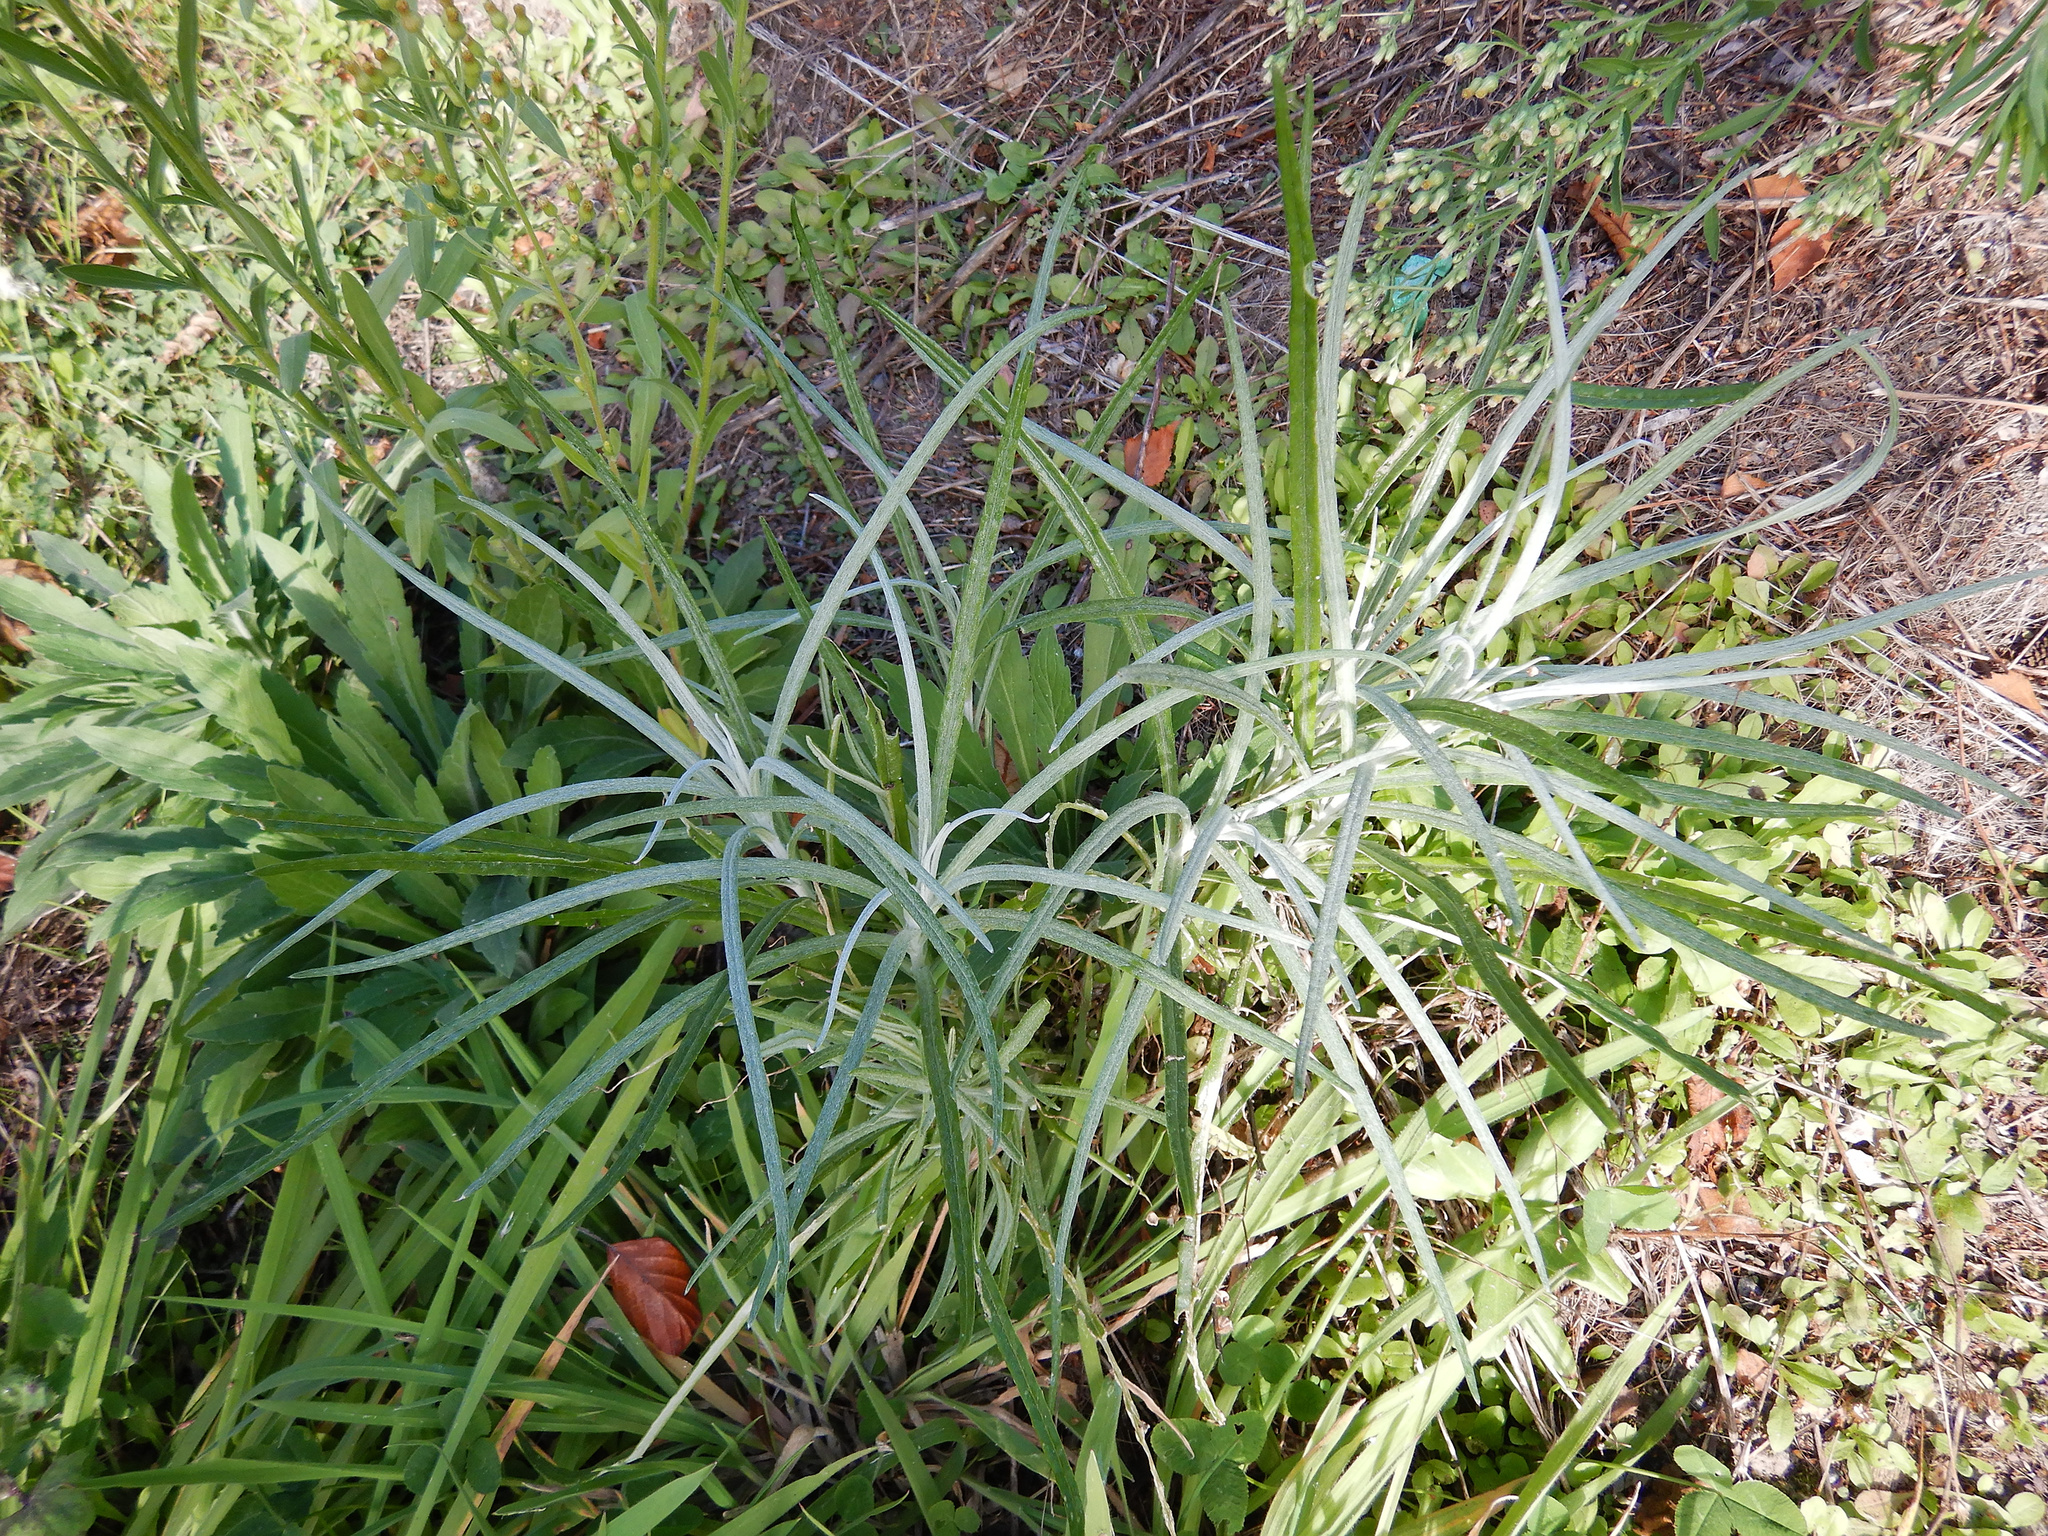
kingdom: Plantae
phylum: Tracheophyta
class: Magnoliopsida
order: Asterales
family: Asteraceae
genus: Senecio
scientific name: Senecio quadridentatus
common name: Cotton fireweed
